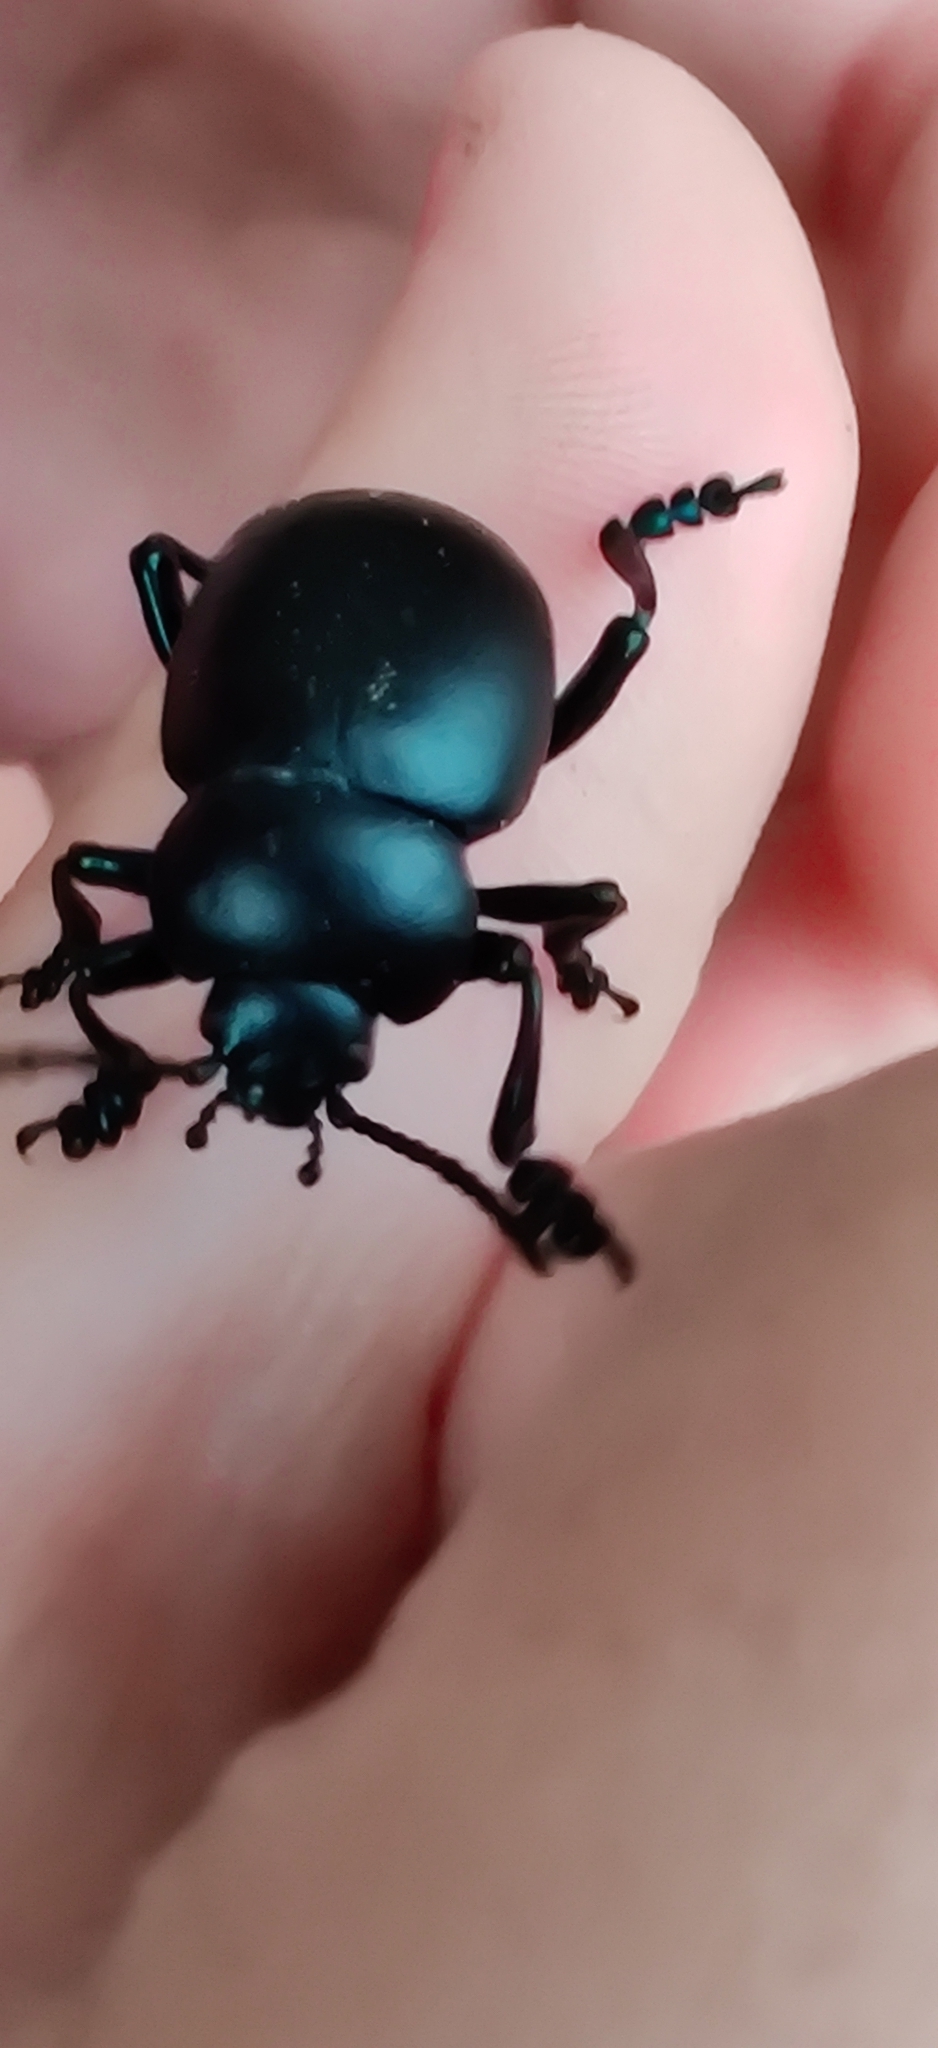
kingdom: Animalia
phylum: Arthropoda
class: Insecta
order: Coleoptera
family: Chrysomelidae
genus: Timarcha
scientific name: Timarcha nicaeensis
